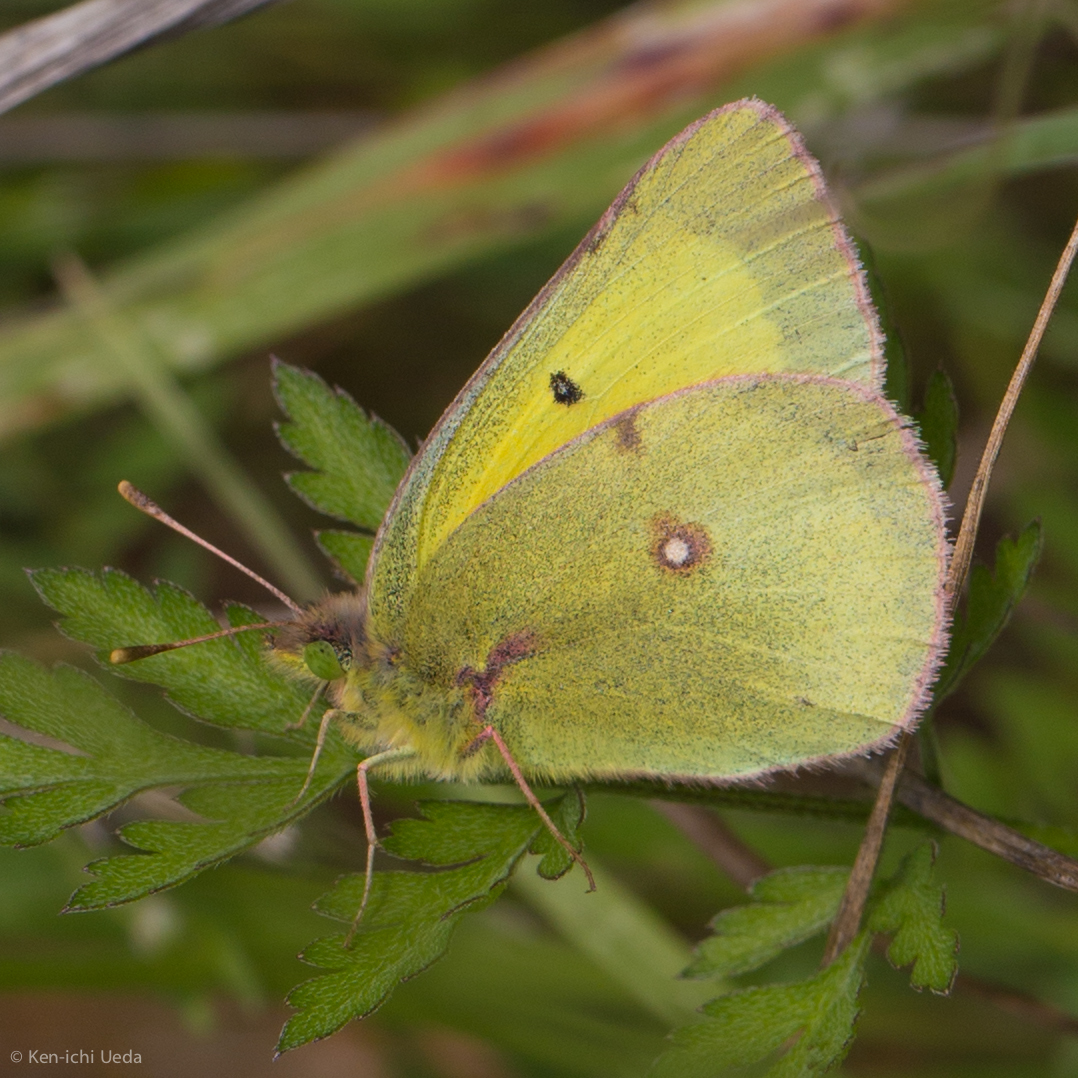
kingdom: Animalia
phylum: Arthropoda
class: Insecta
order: Lepidoptera
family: Pieridae
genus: Colias
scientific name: Colias eurytheme
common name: Alfalfa butterfly
